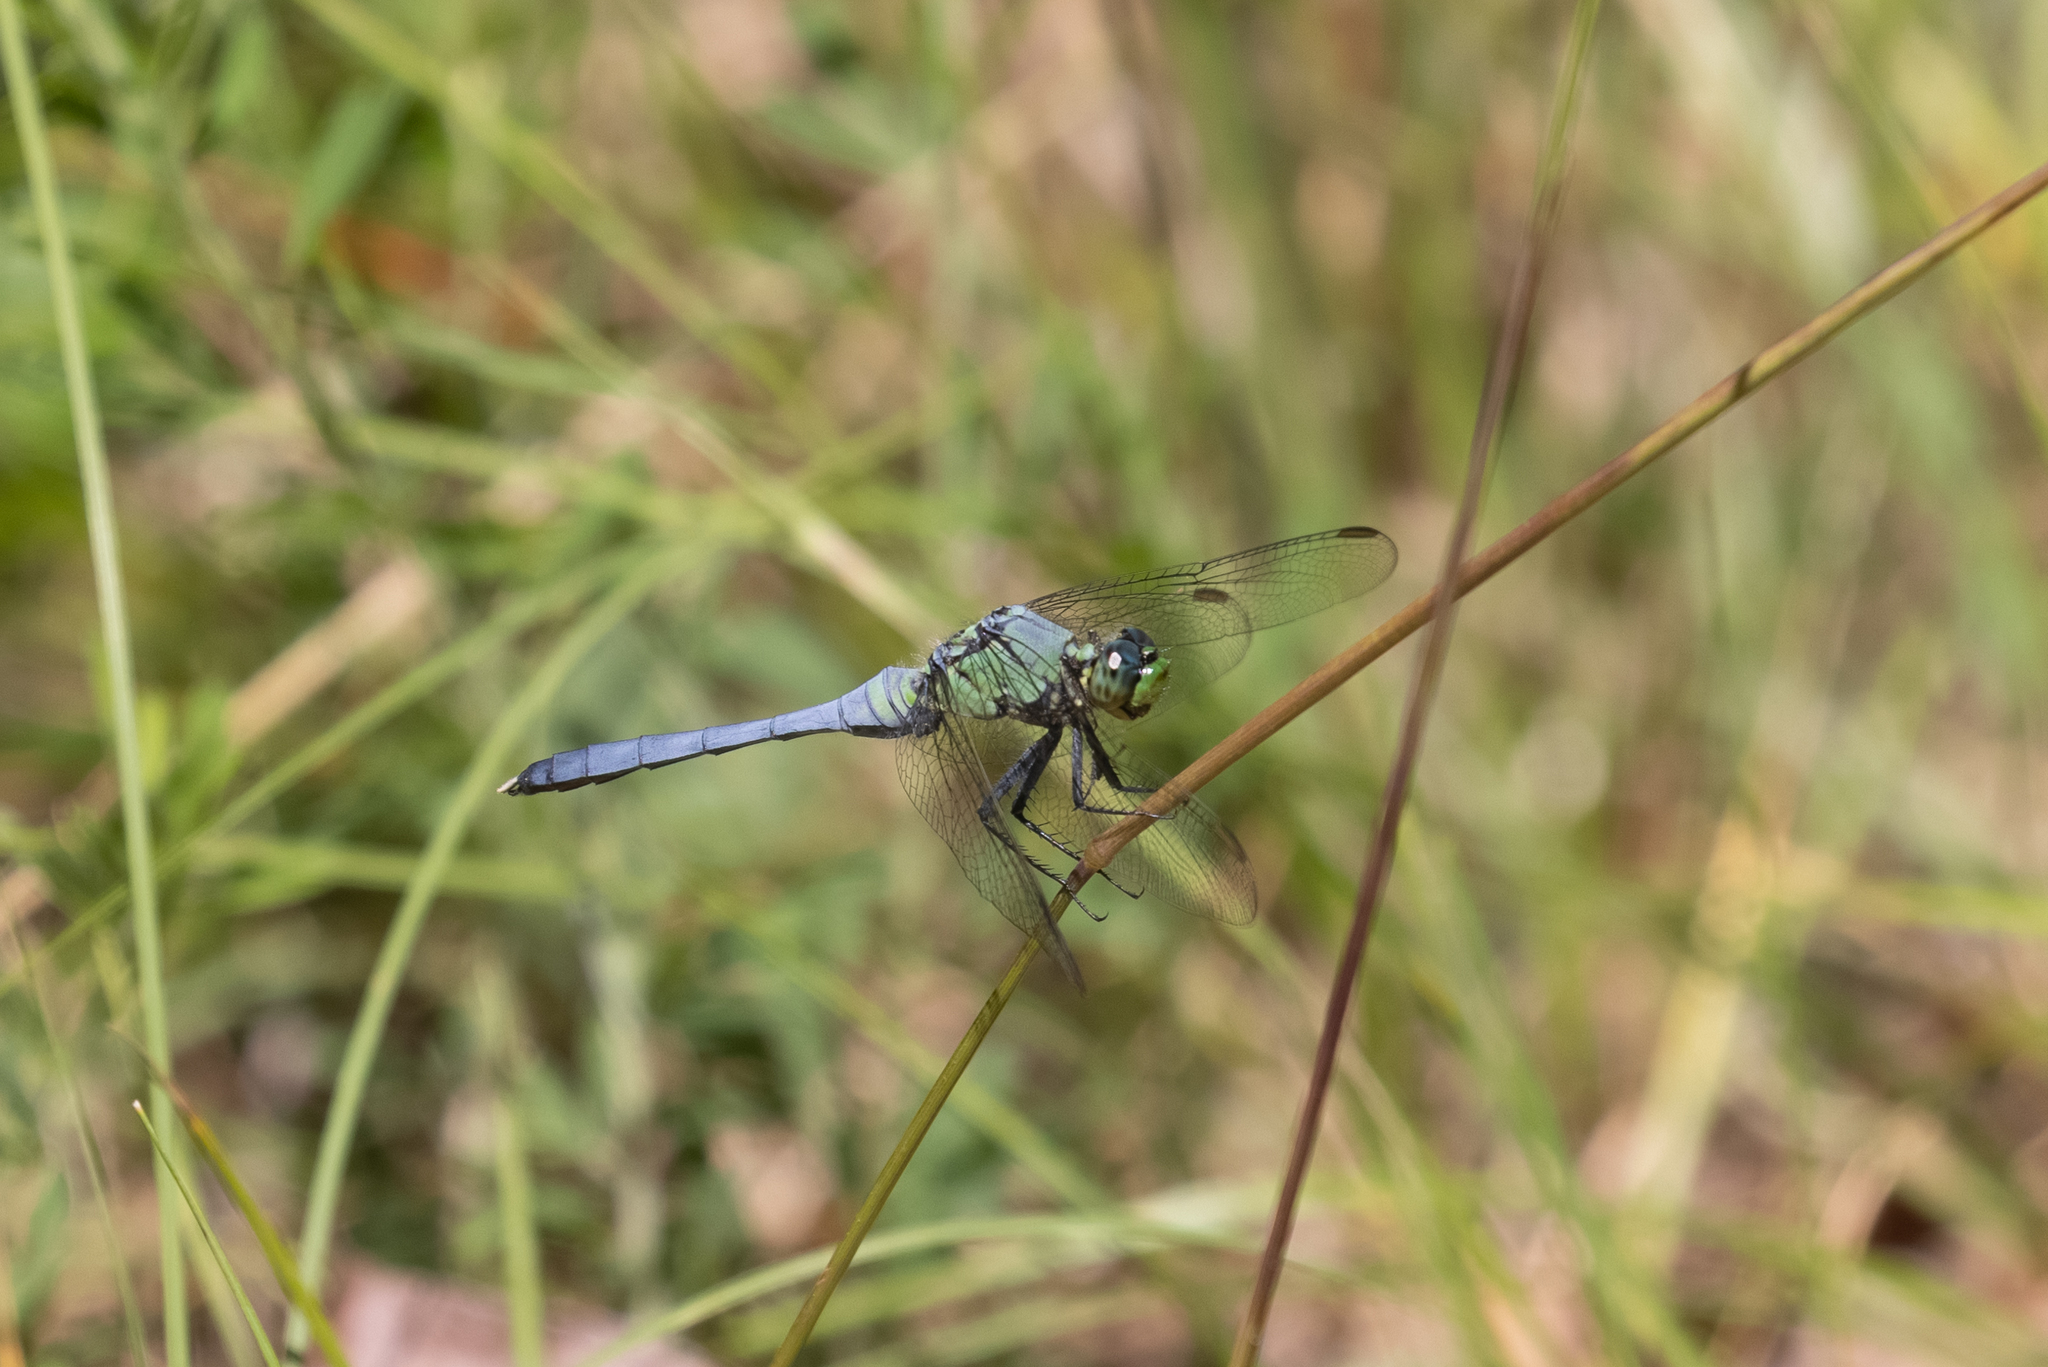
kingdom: Animalia
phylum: Arthropoda
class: Insecta
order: Odonata
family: Libellulidae
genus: Erythemis
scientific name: Erythemis simplicicollis
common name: Eastern pondhawk
